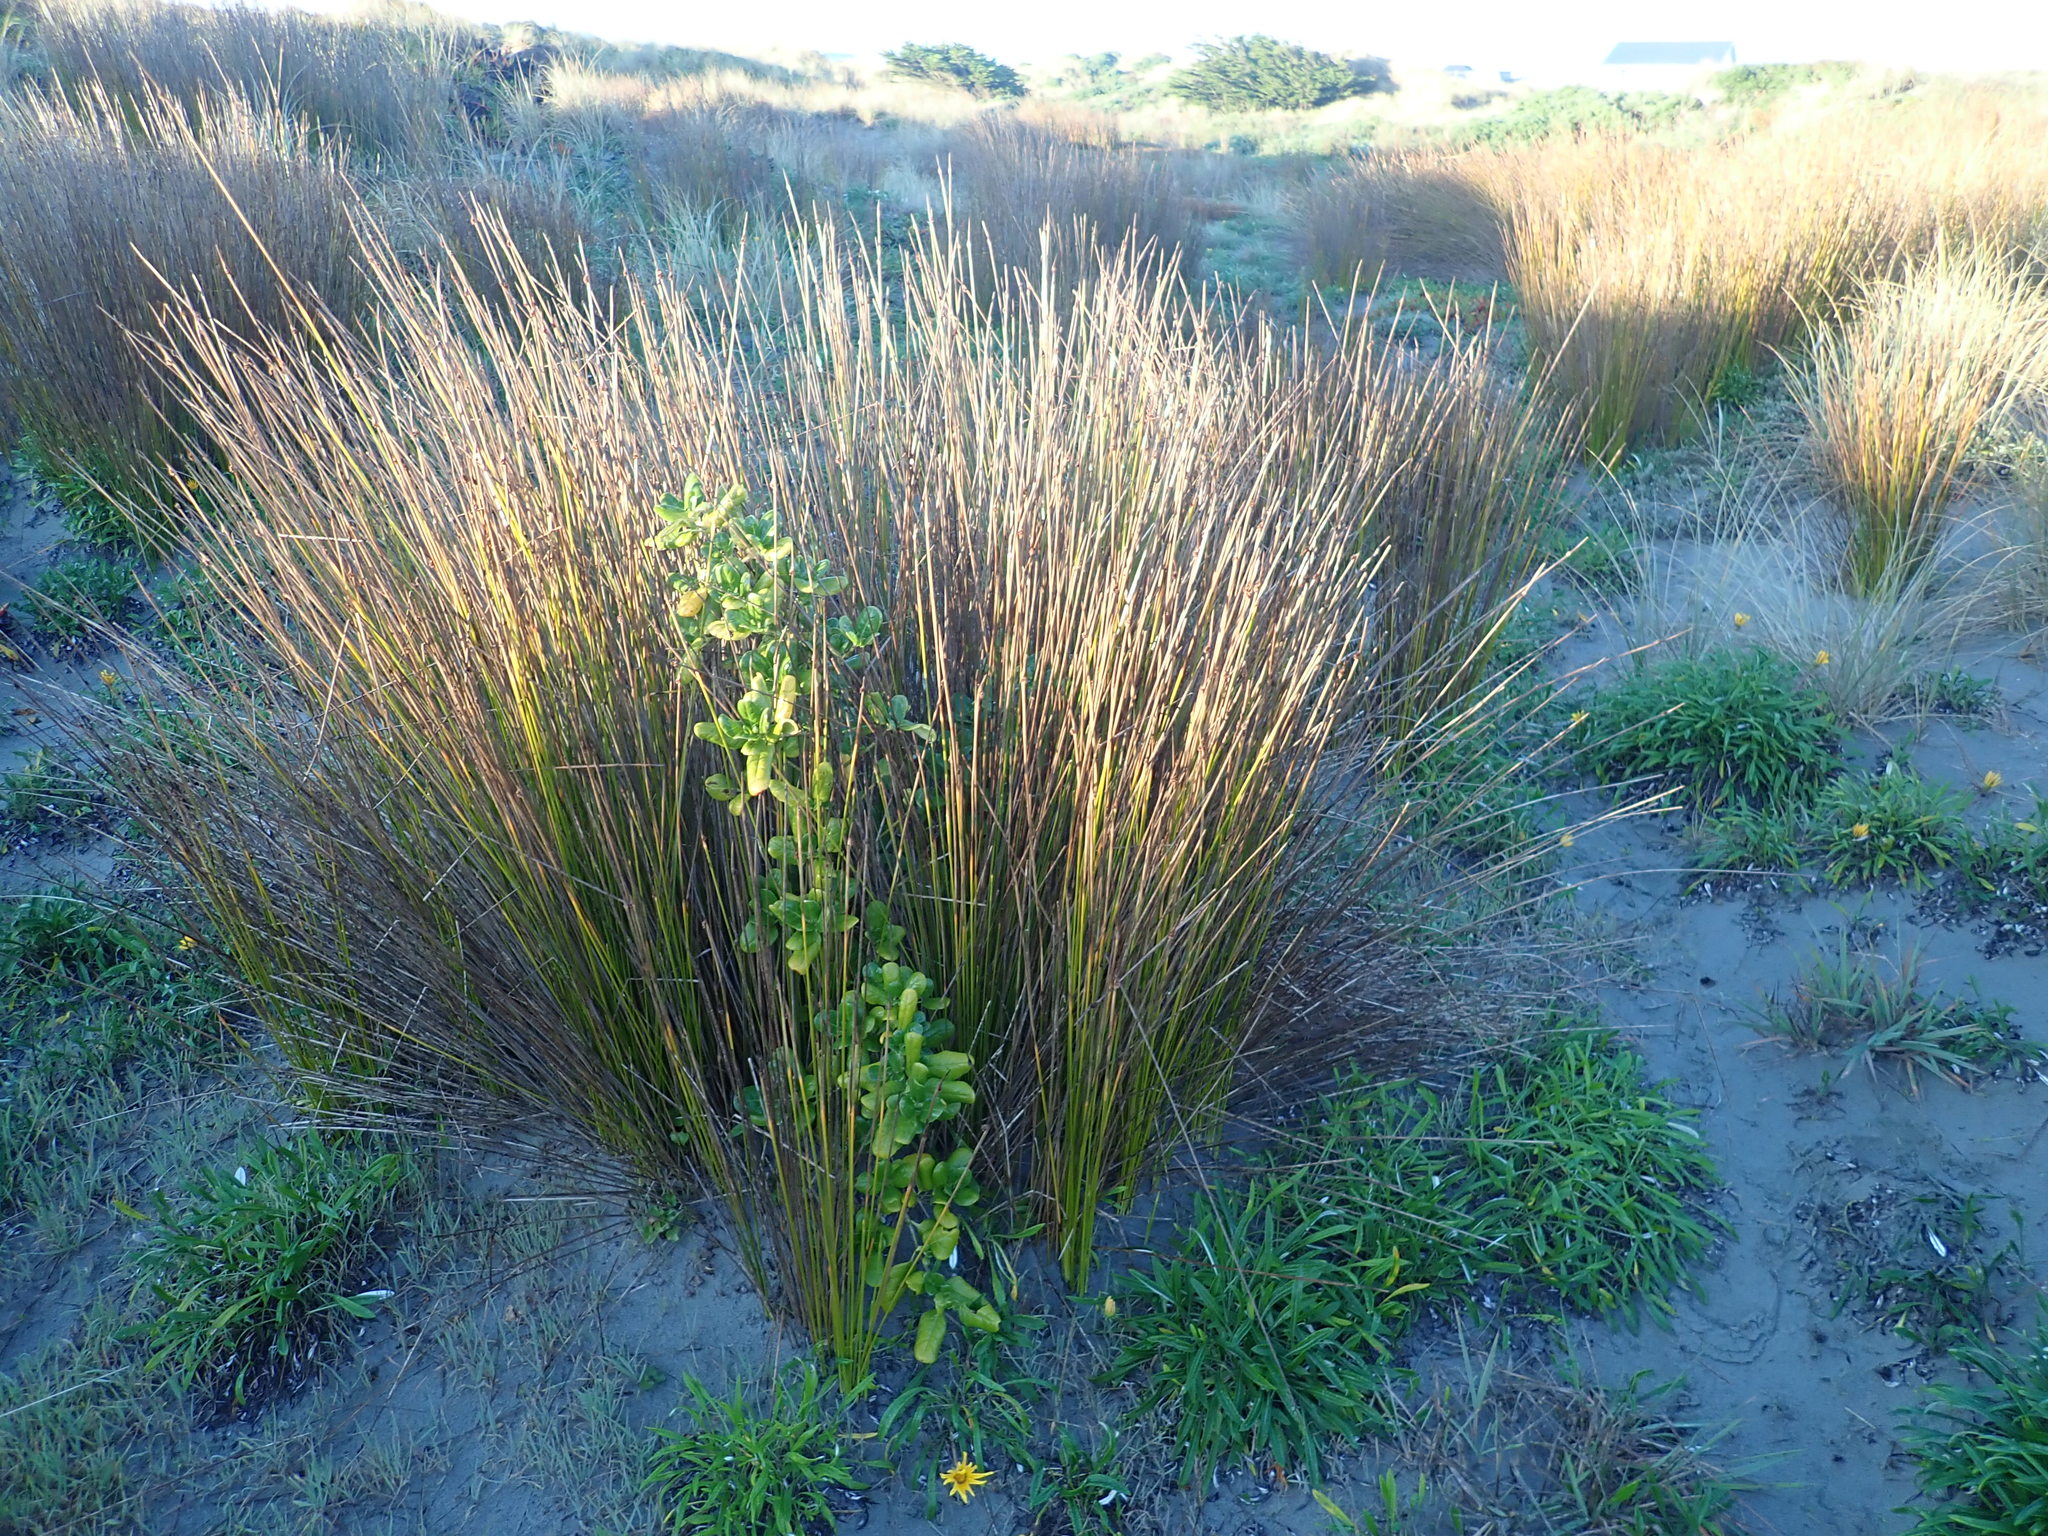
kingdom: Plantae
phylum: Tracheophyta
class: Magnoliopsida
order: Gentianales
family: Rubiaceae
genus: Coprosma
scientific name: Coprosma repens
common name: Tree bedstraw
